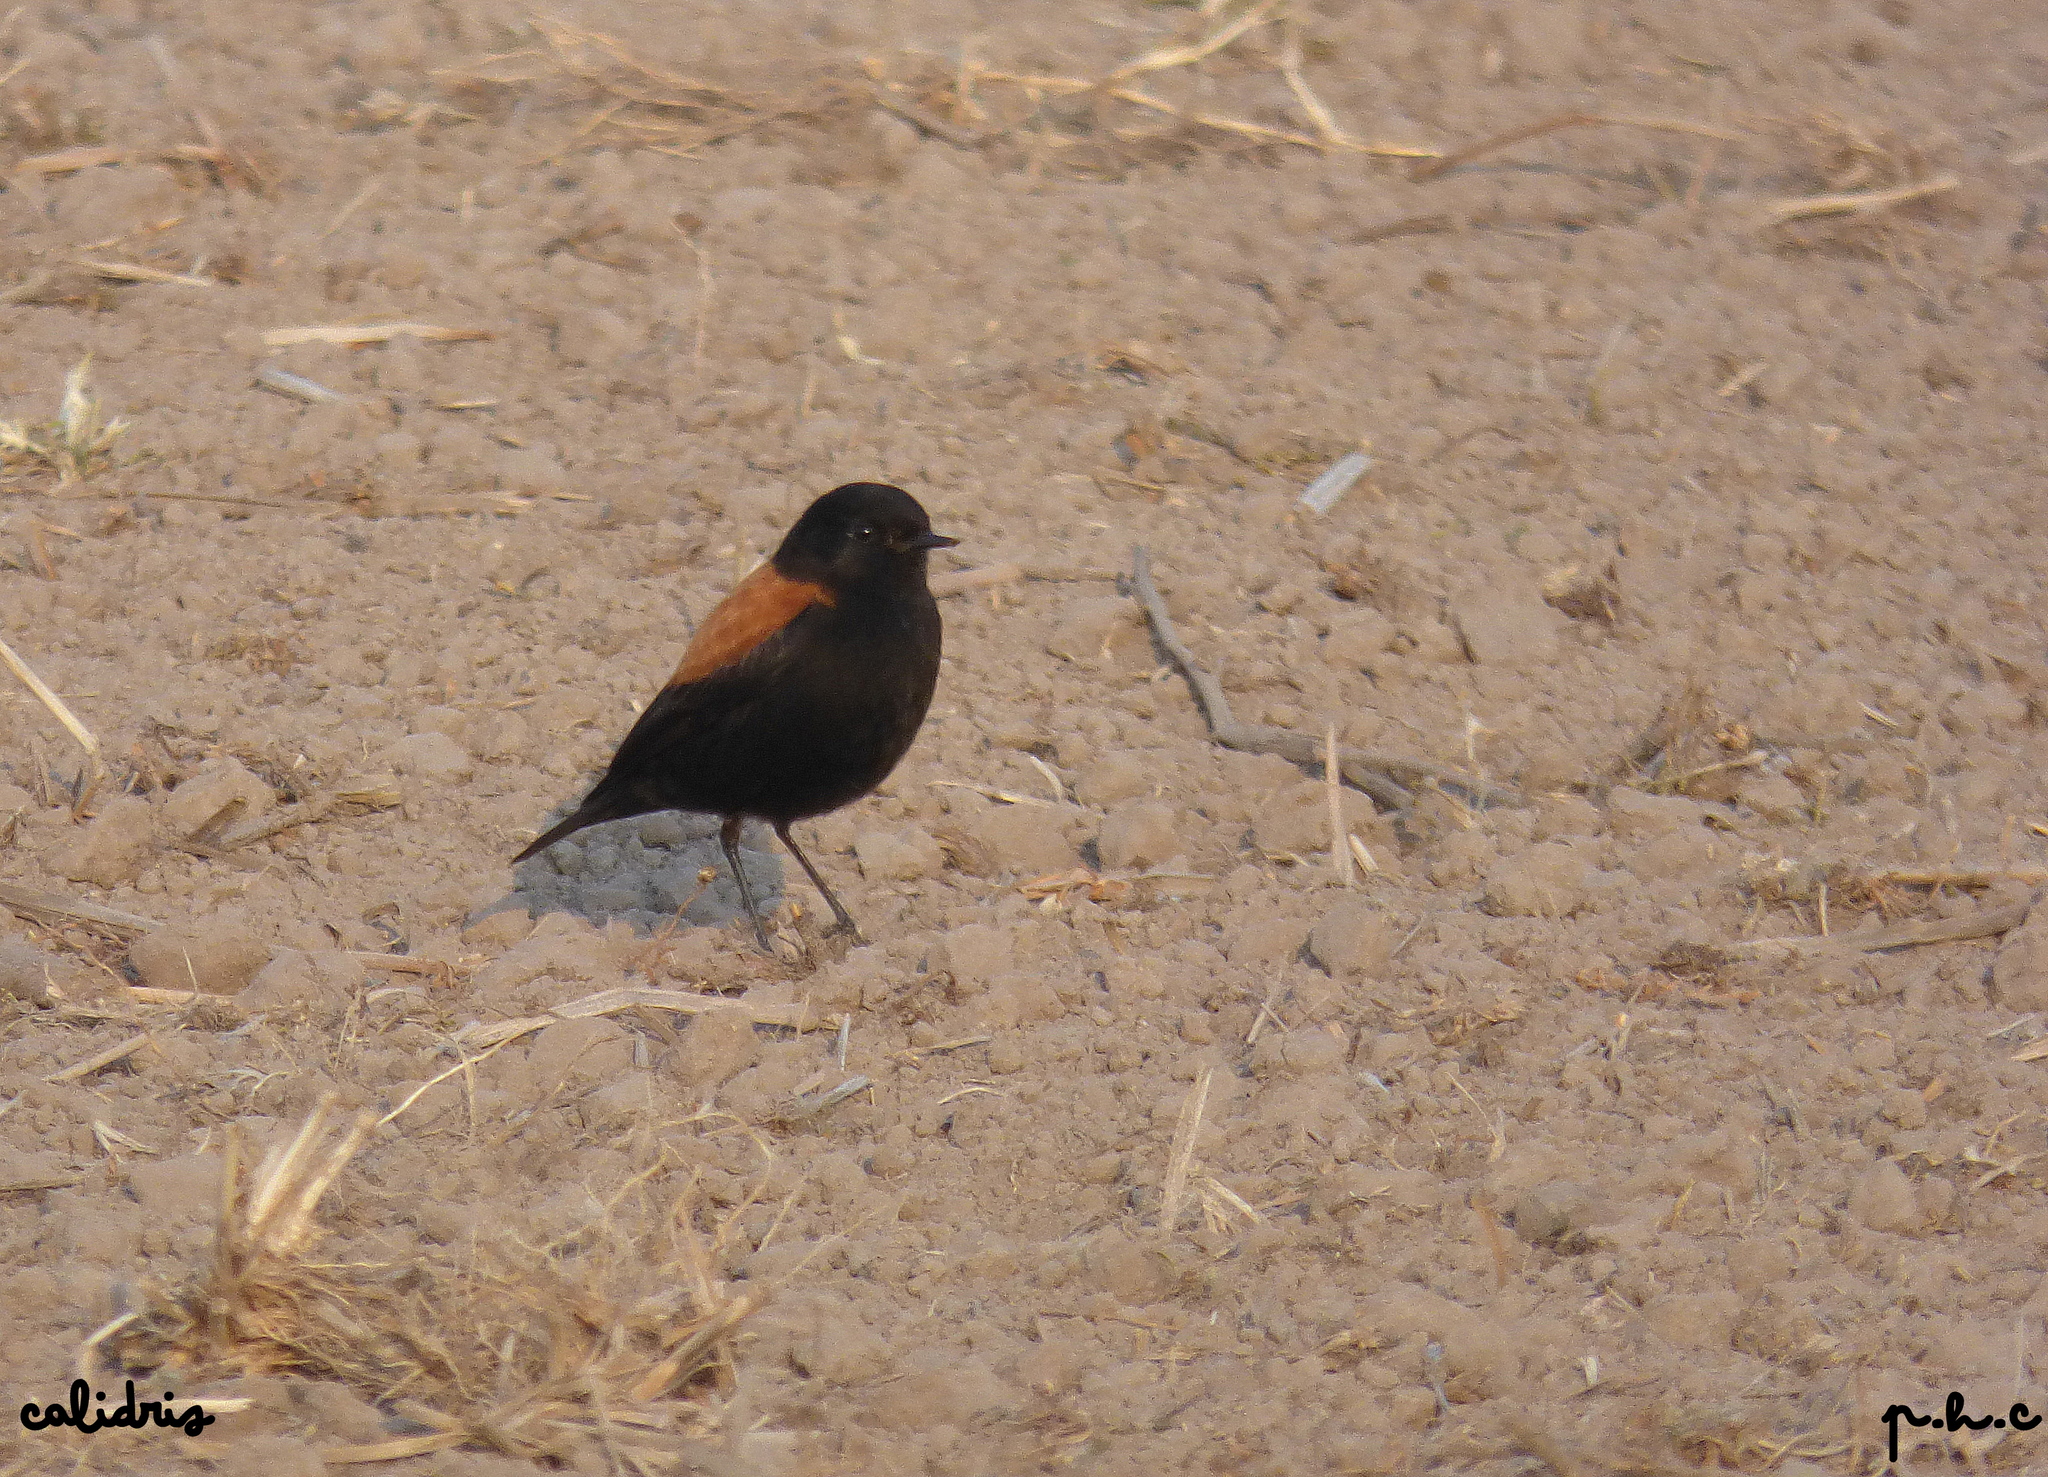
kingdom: Animalia
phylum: Chordata
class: Aves
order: Passeriformes
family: Tyrannidae
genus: Lessonia
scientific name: Lessonia rufa
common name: Austral negrito
